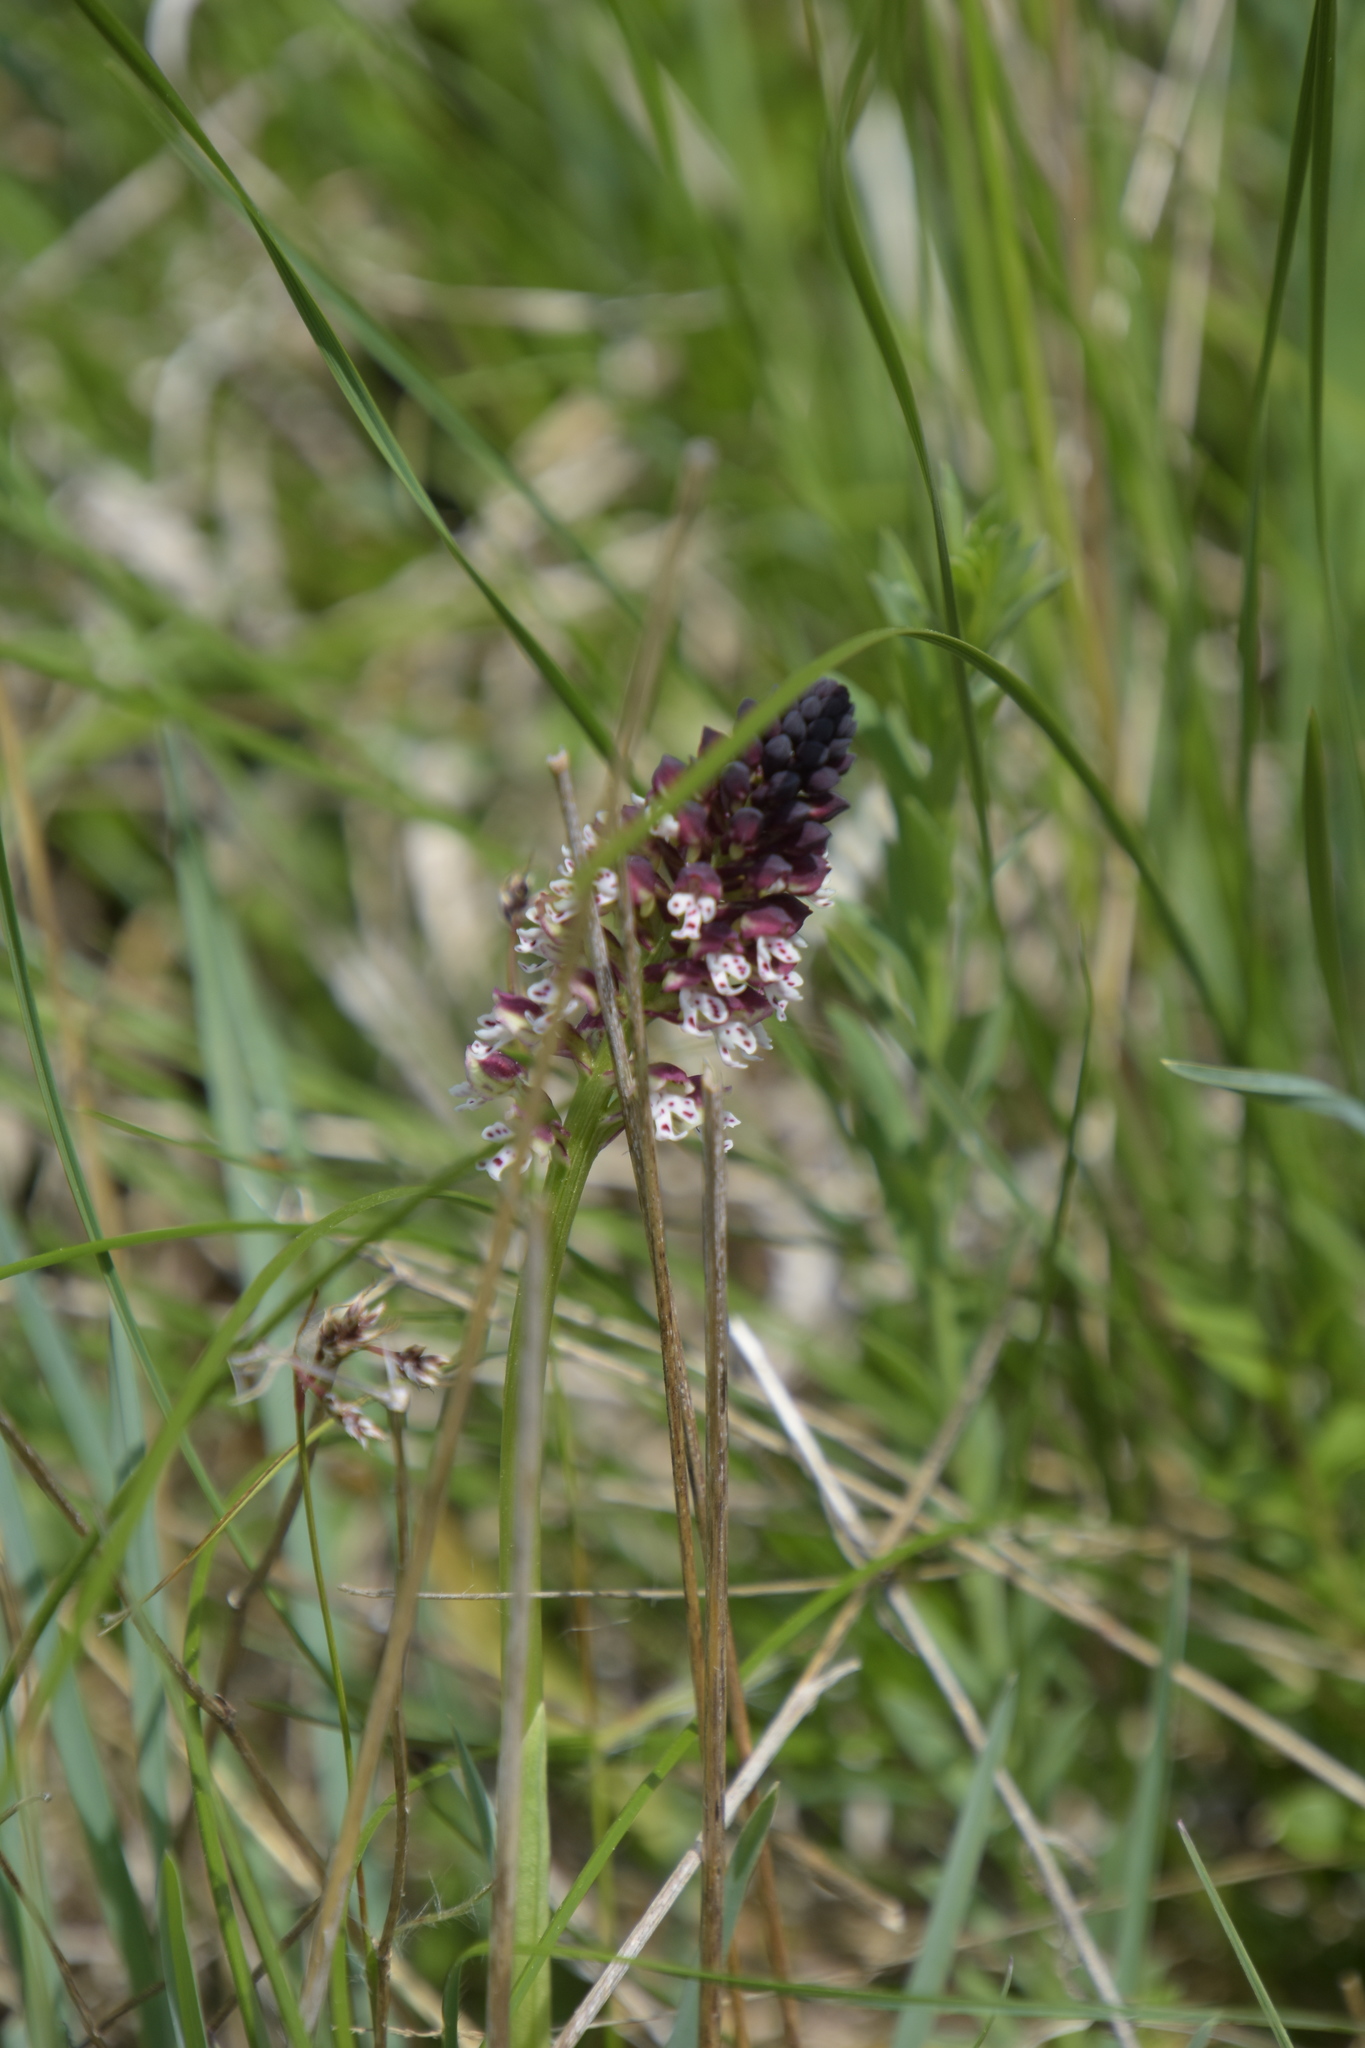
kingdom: Plantae
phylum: Tracheophyta
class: Liliopsida
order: Asparagales
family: Orchidaceae
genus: Neotinea
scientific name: Neotinea ustulata
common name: Burnt orchid
